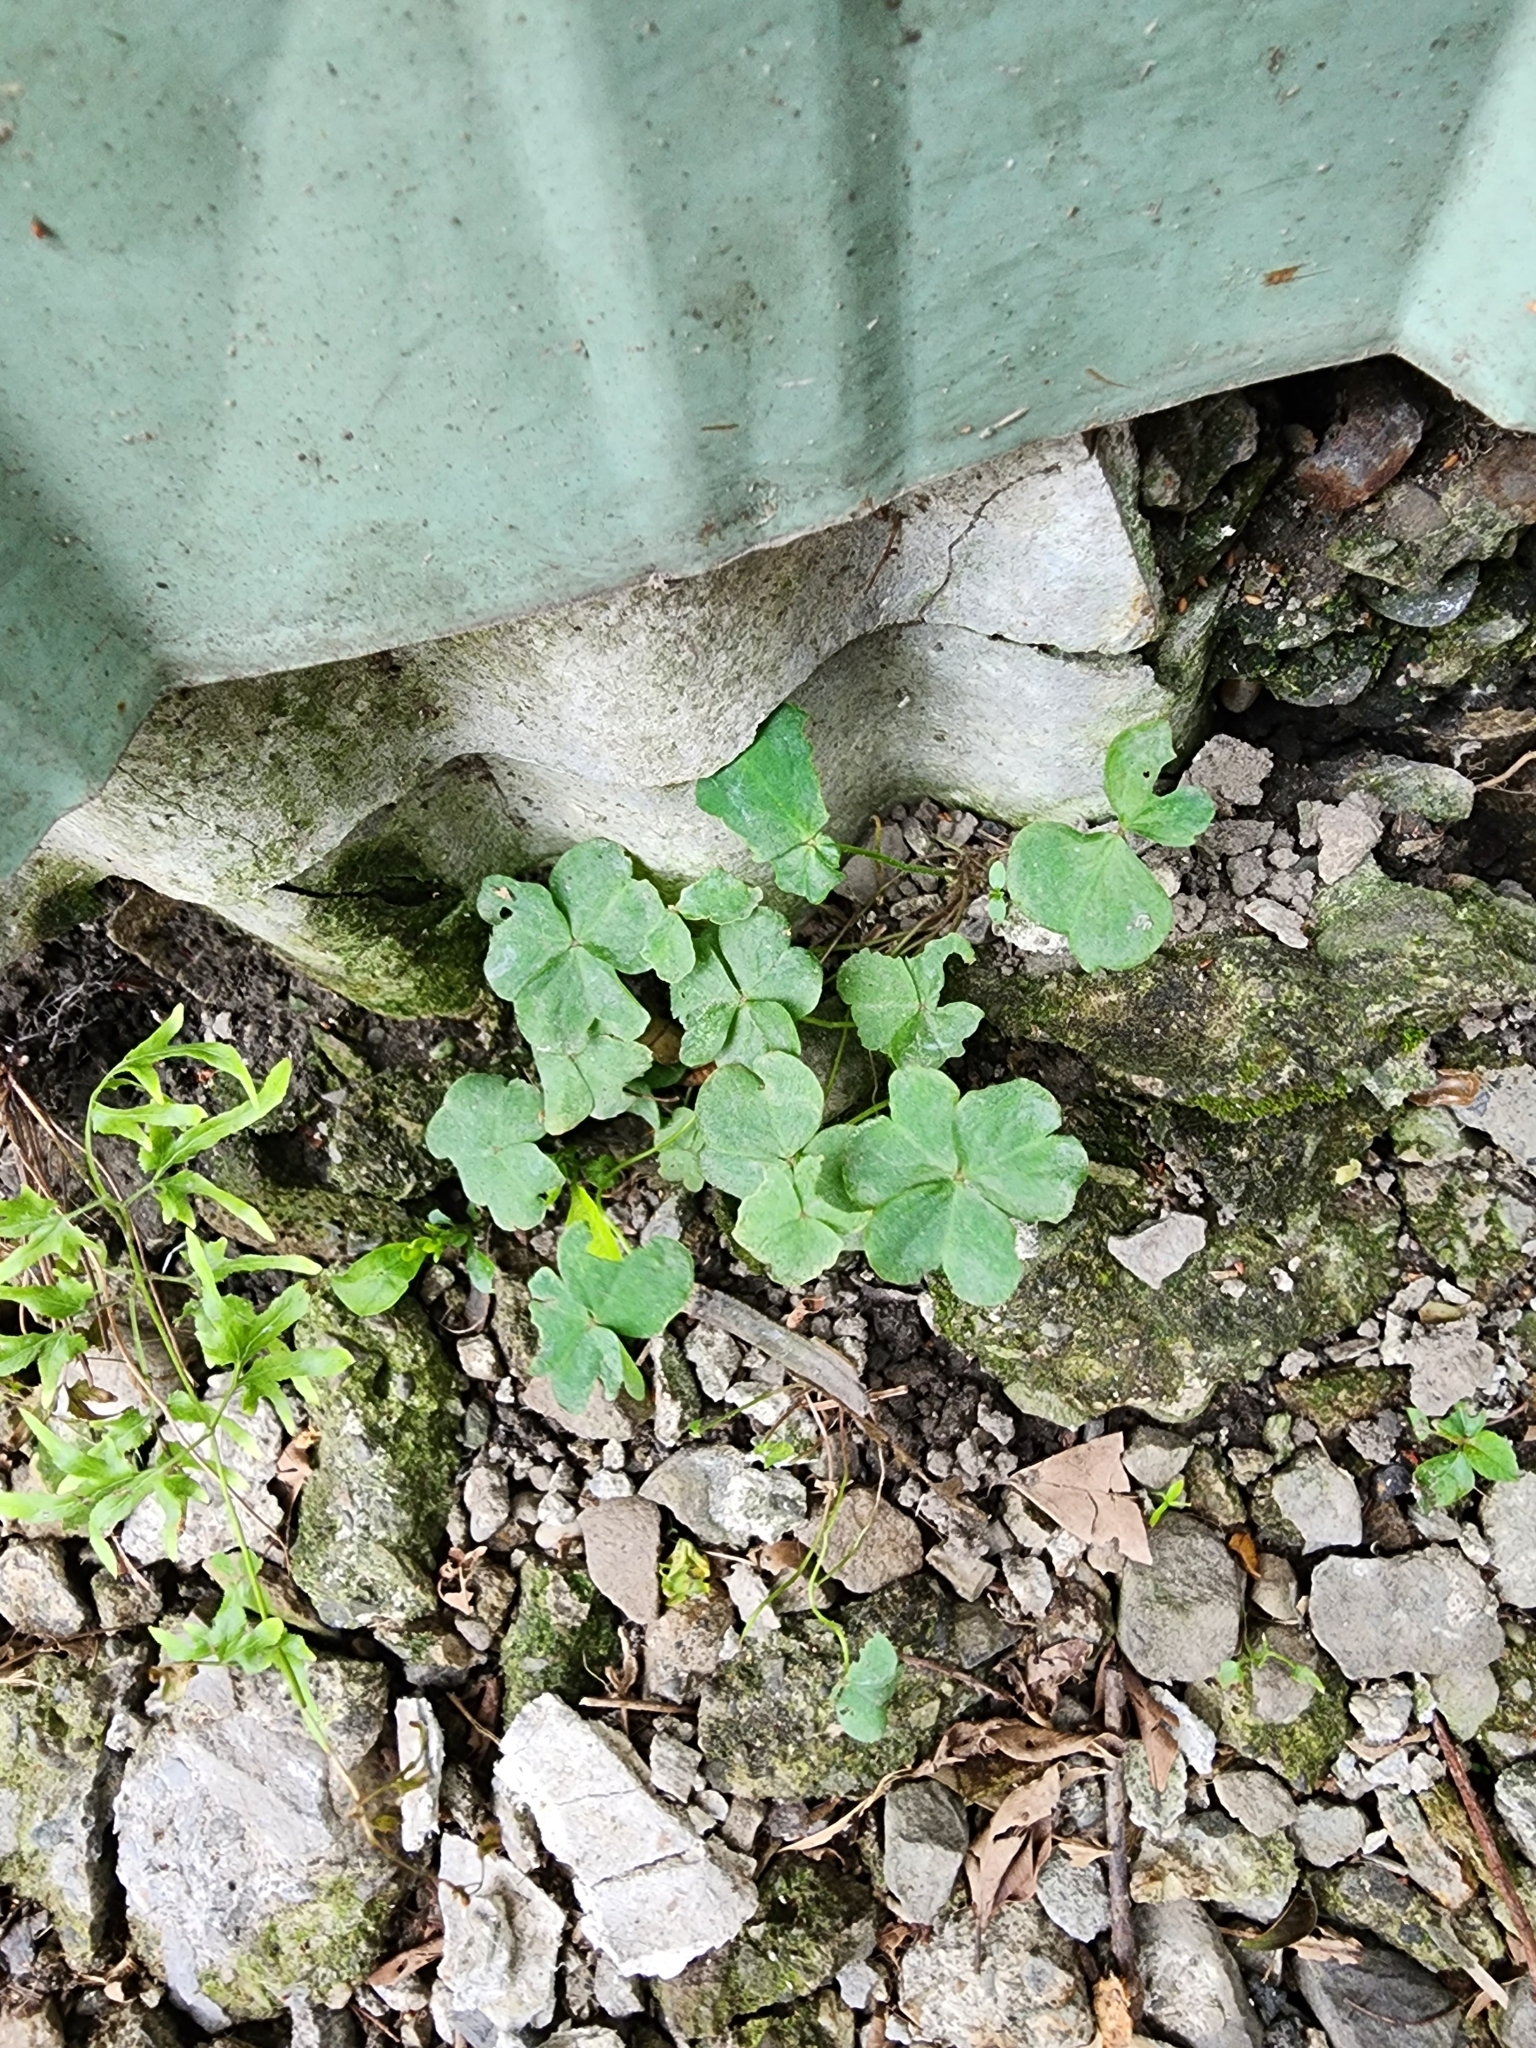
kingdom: Plantae
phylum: Tracheophyta
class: Magnoliopsida
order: Oxalidales
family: Oxalidaceae
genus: Oxalis
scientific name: Oxalis debilis
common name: Large-flowered pink-sorrel
